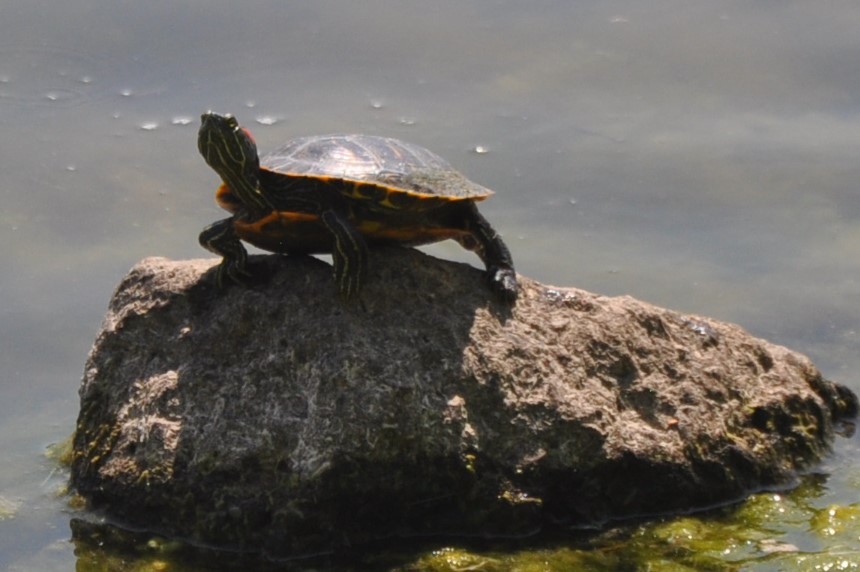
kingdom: Animalia
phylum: Chordata
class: Testudines
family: Emydidae
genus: Trachemys
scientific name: Trachemys scripta
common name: Slider
